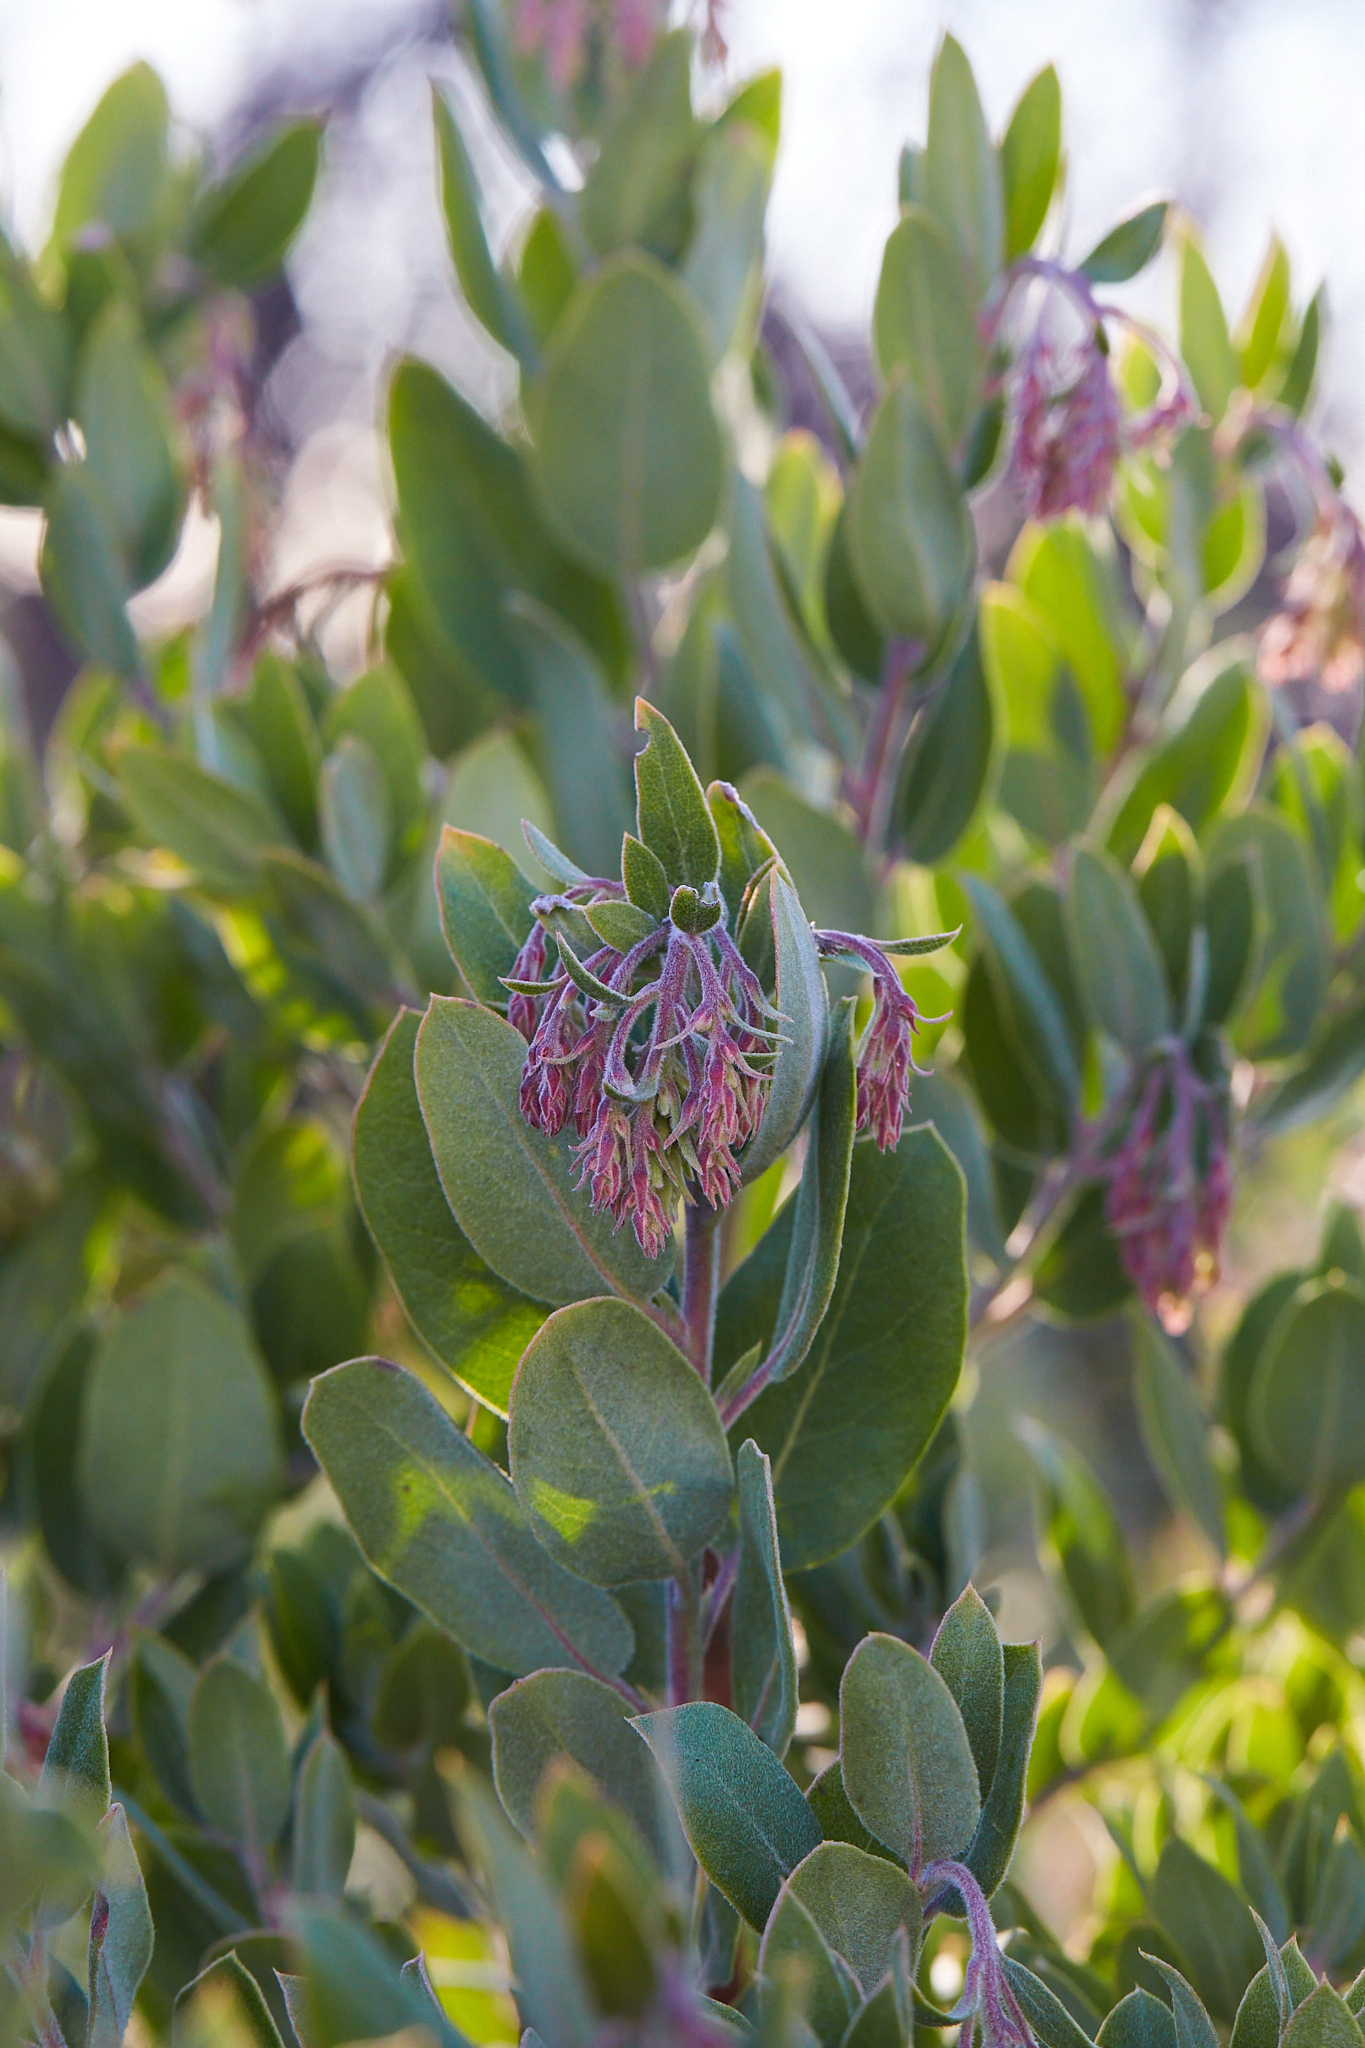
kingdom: Plantae
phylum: Tracheophyta
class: Magnoliopsida
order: Ericales
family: Ericaceae
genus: Arctostaphylos
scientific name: Arctostaphylos crustacea
